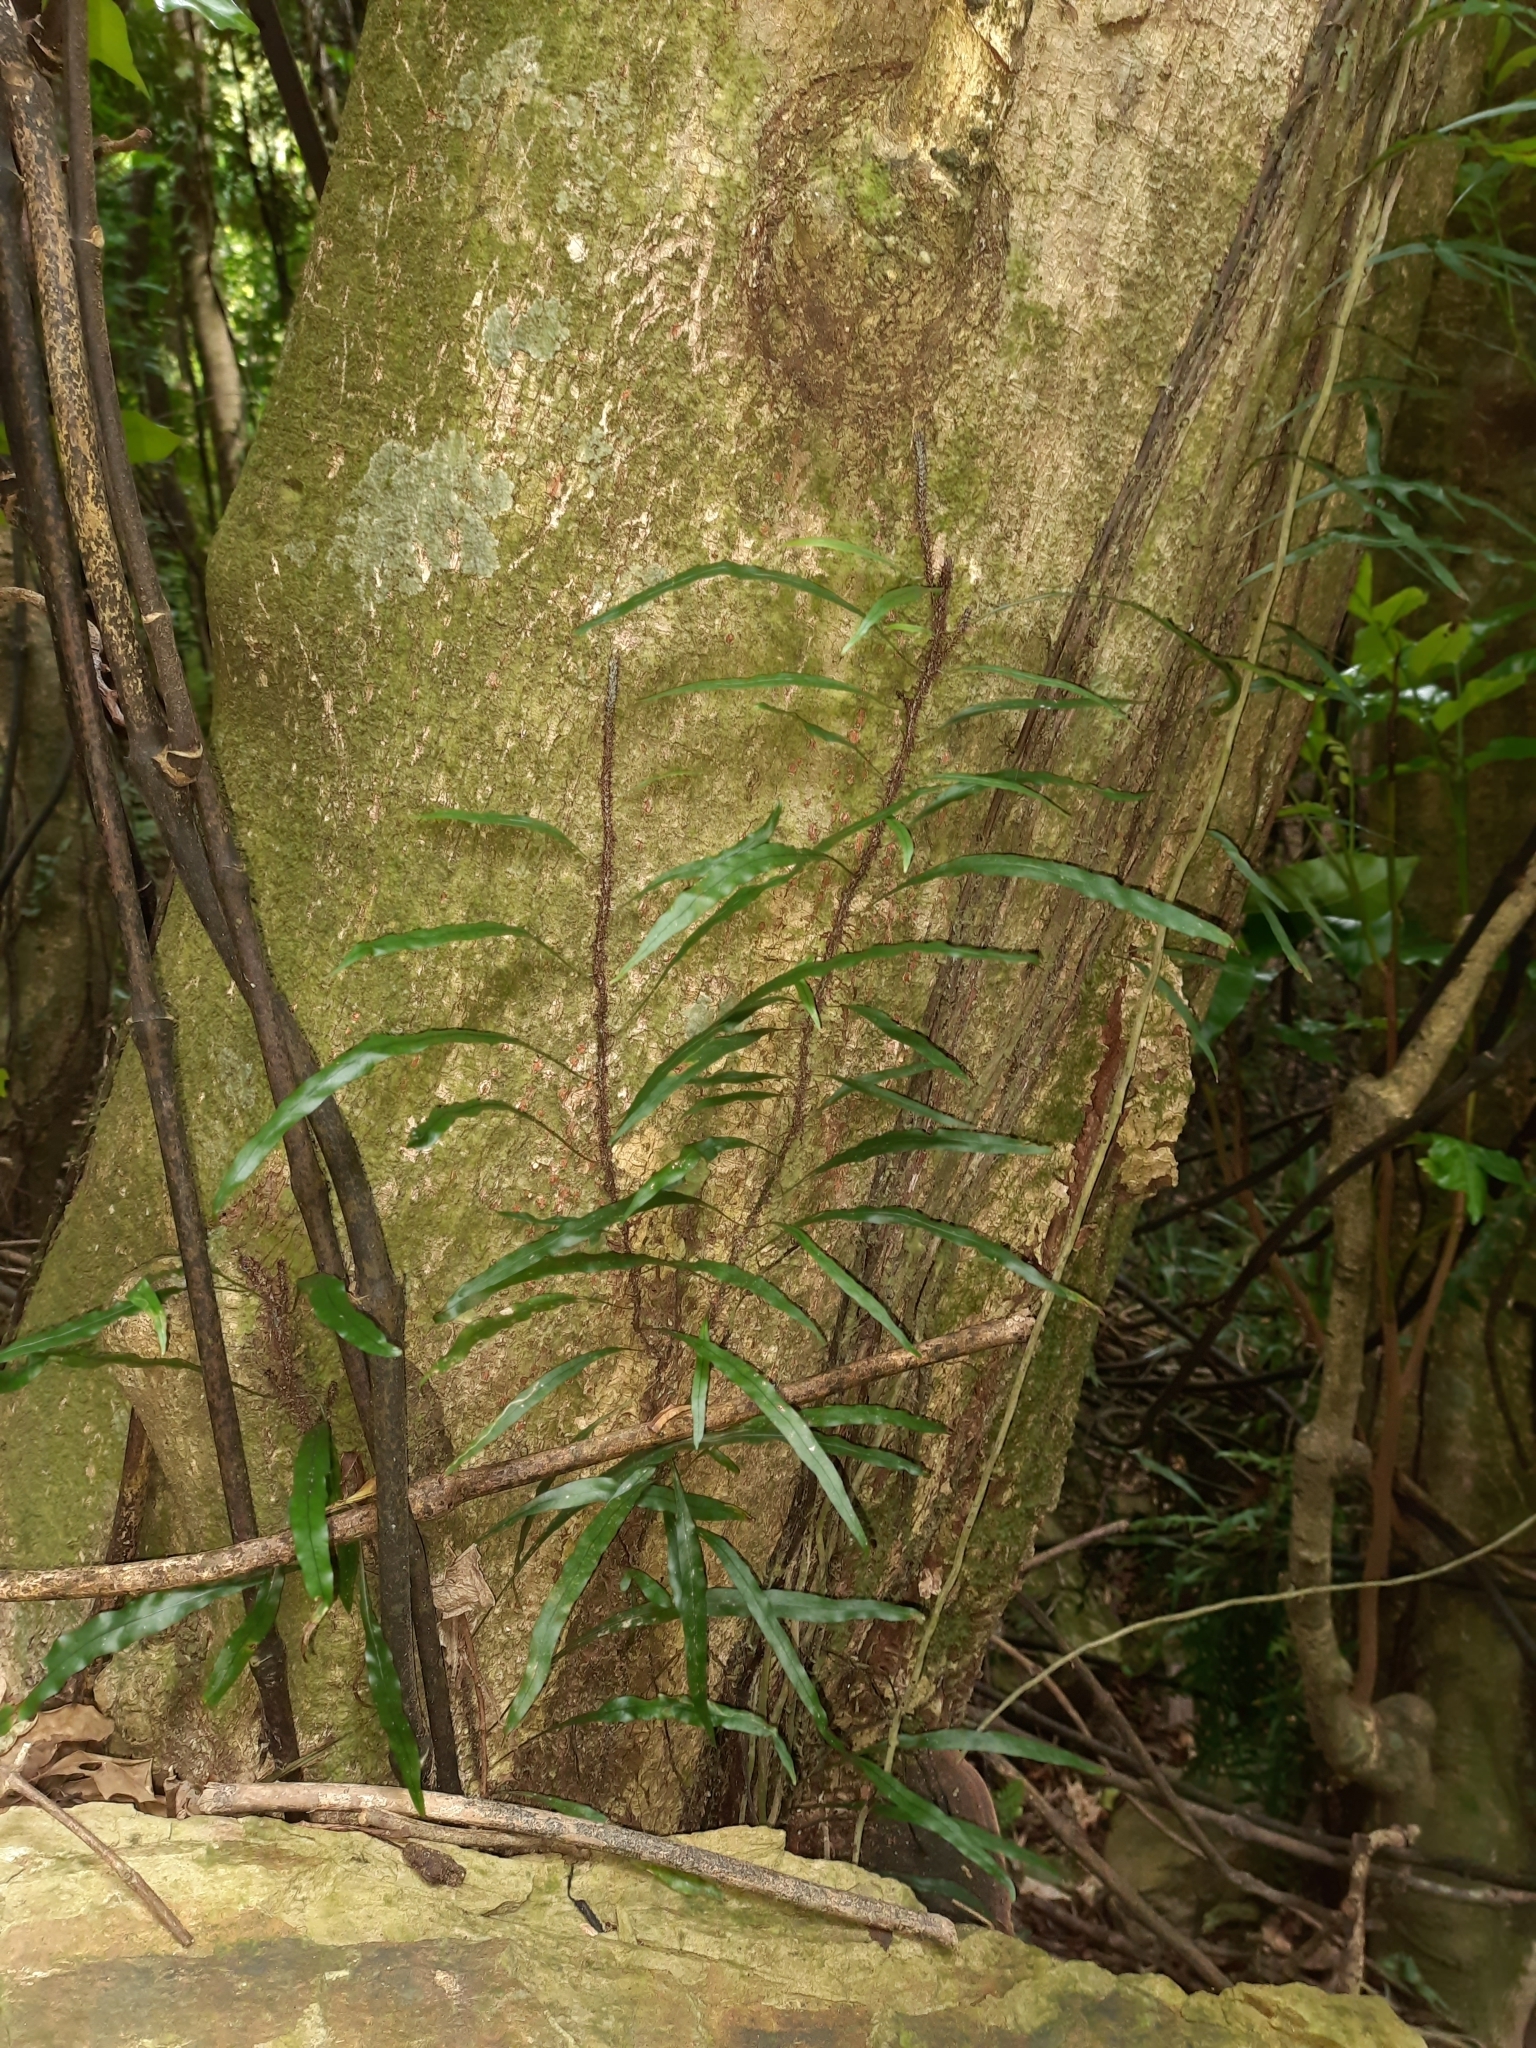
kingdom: Plantae
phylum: Tracheophyta
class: Polypodiopsida
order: Polypodiales
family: Polypodiaceae
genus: Lecanopteris
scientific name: Lecanopteris scandens
